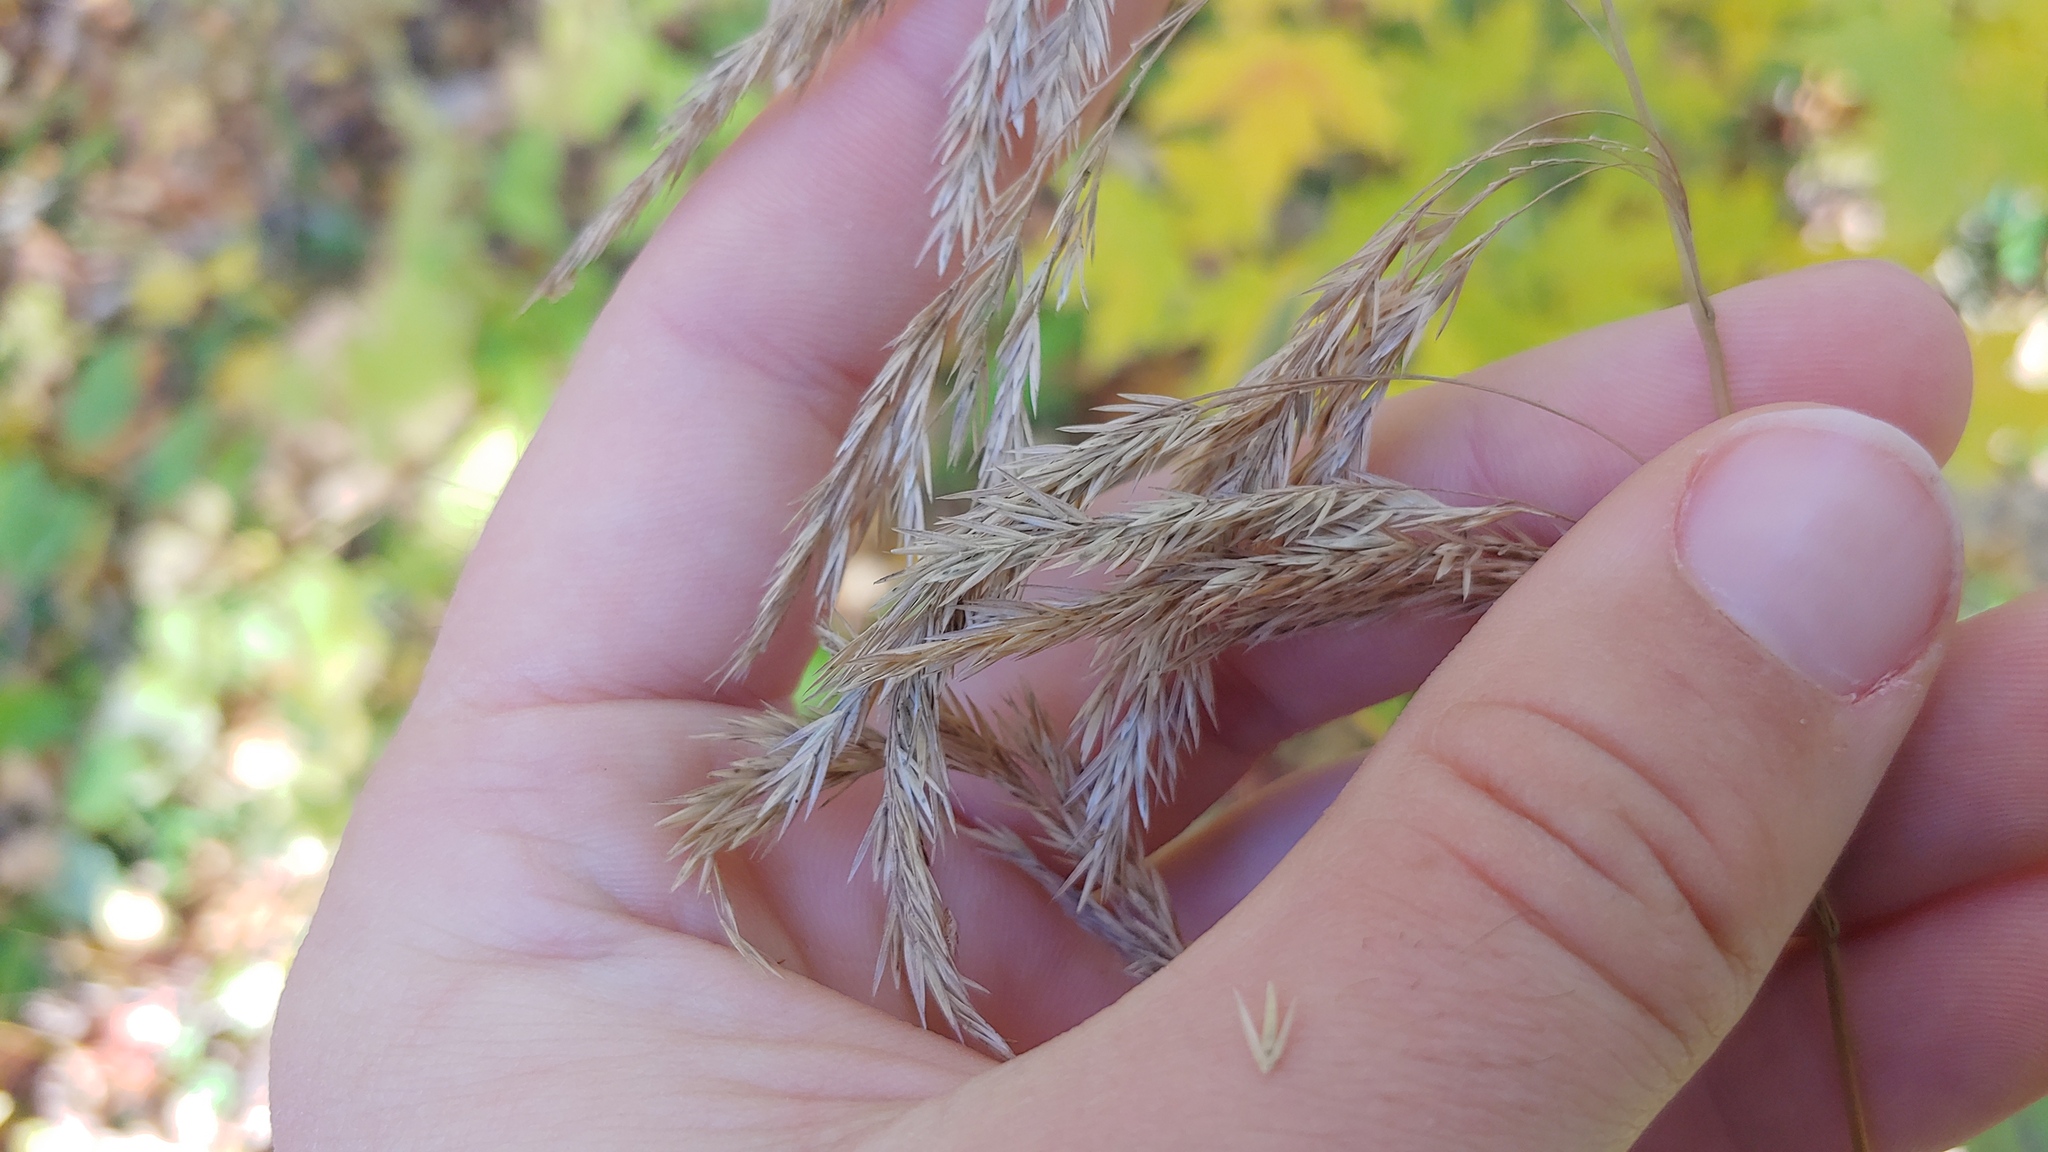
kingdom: Plantae
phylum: Tracheophyta
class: Liliopsida
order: Poales
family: Poaceae
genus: Cinna
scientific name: Cinna arundinacea
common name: Stout woodreed
